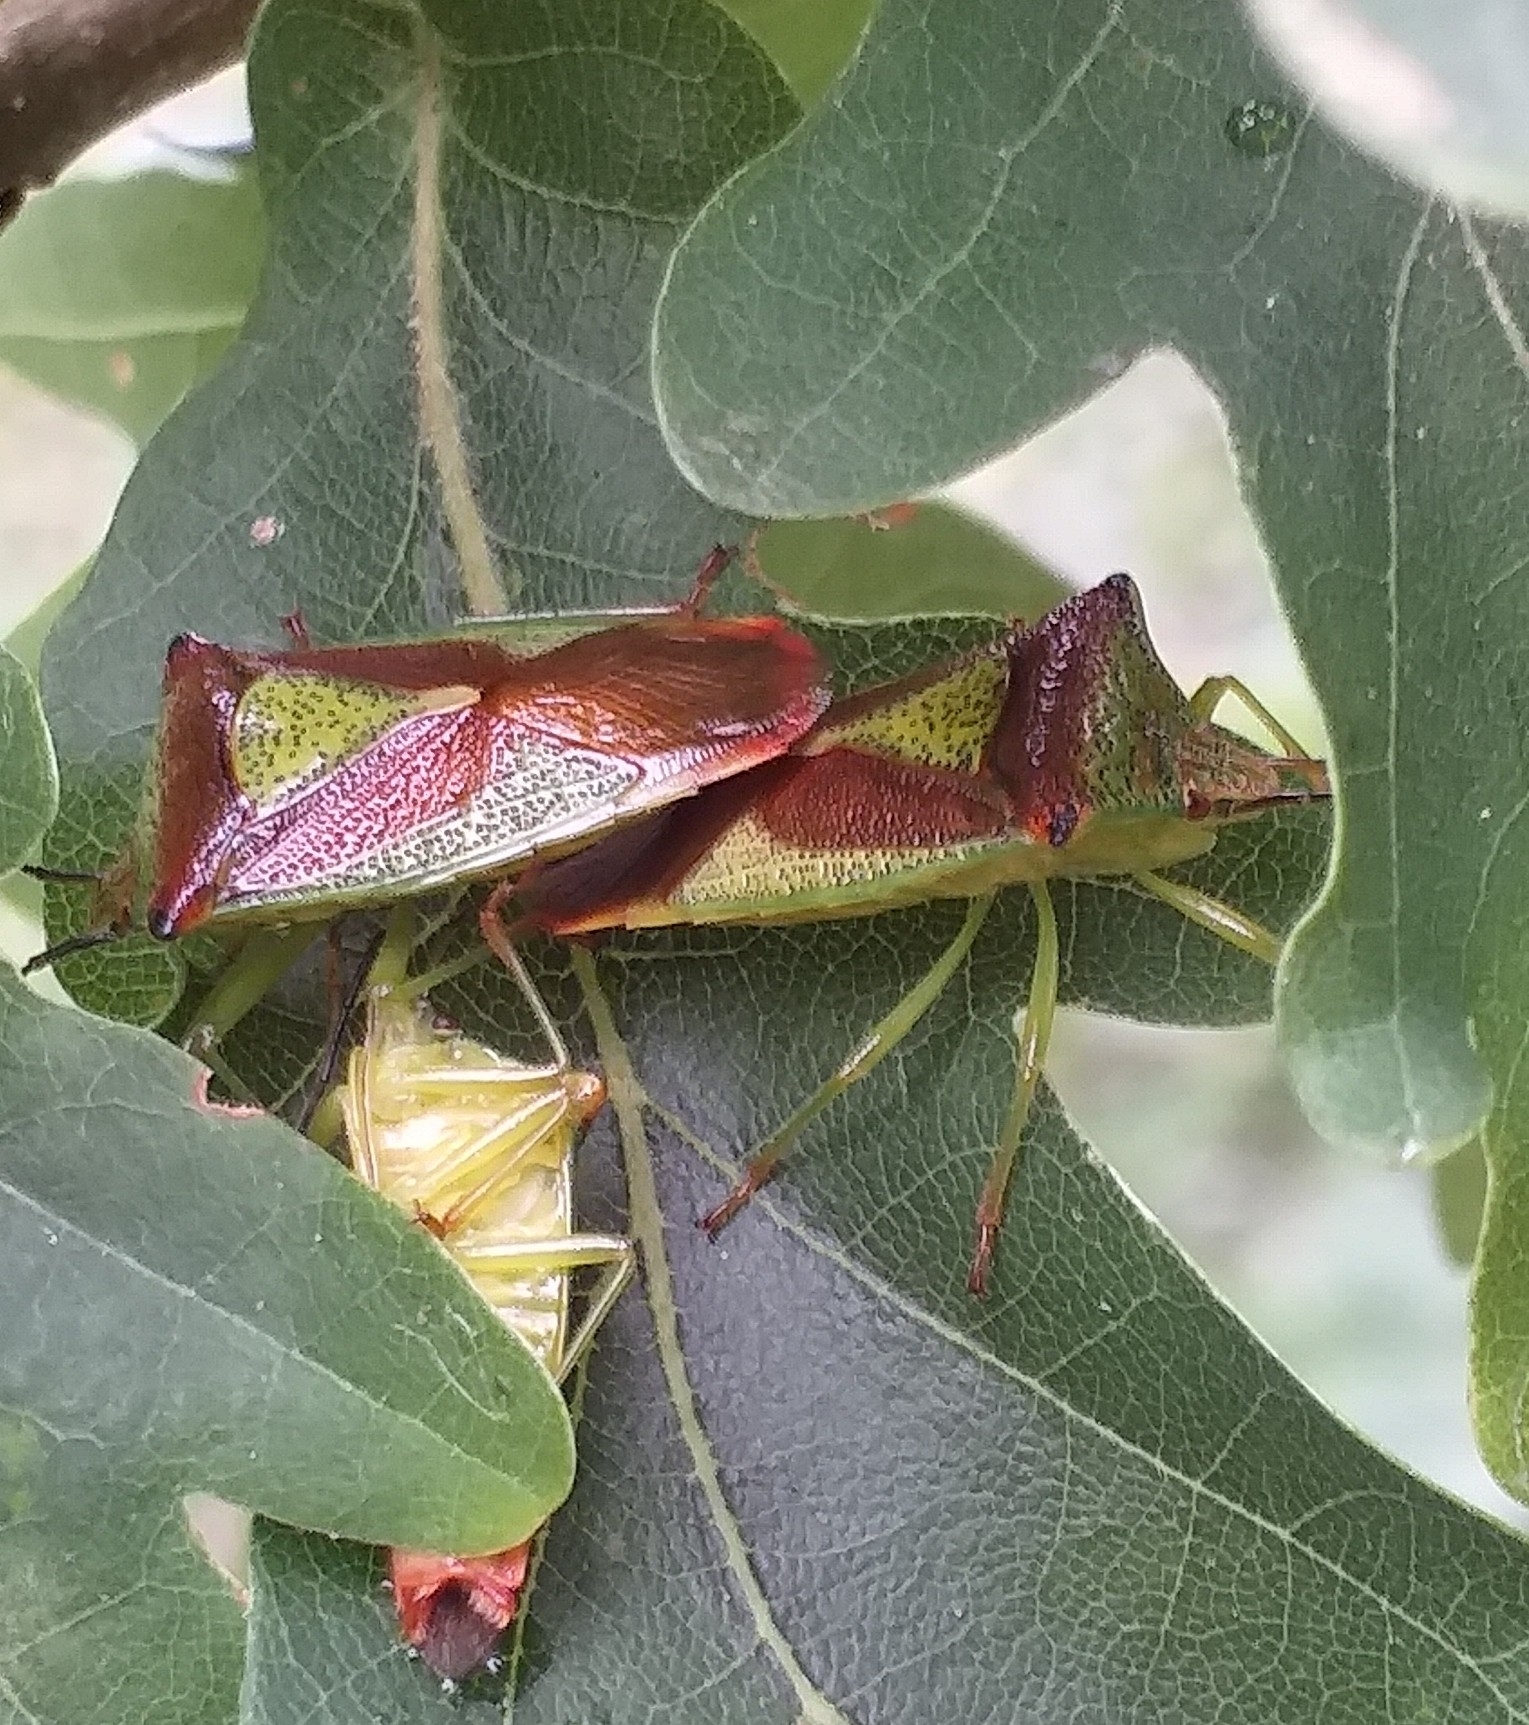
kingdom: Animalia
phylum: Arthropoda
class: Insecta
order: Hemiptera
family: Acanthosomatidae
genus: Acanthosoma
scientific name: Acanthosoma haemorrhoidale
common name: Hawthorn shieldbug
